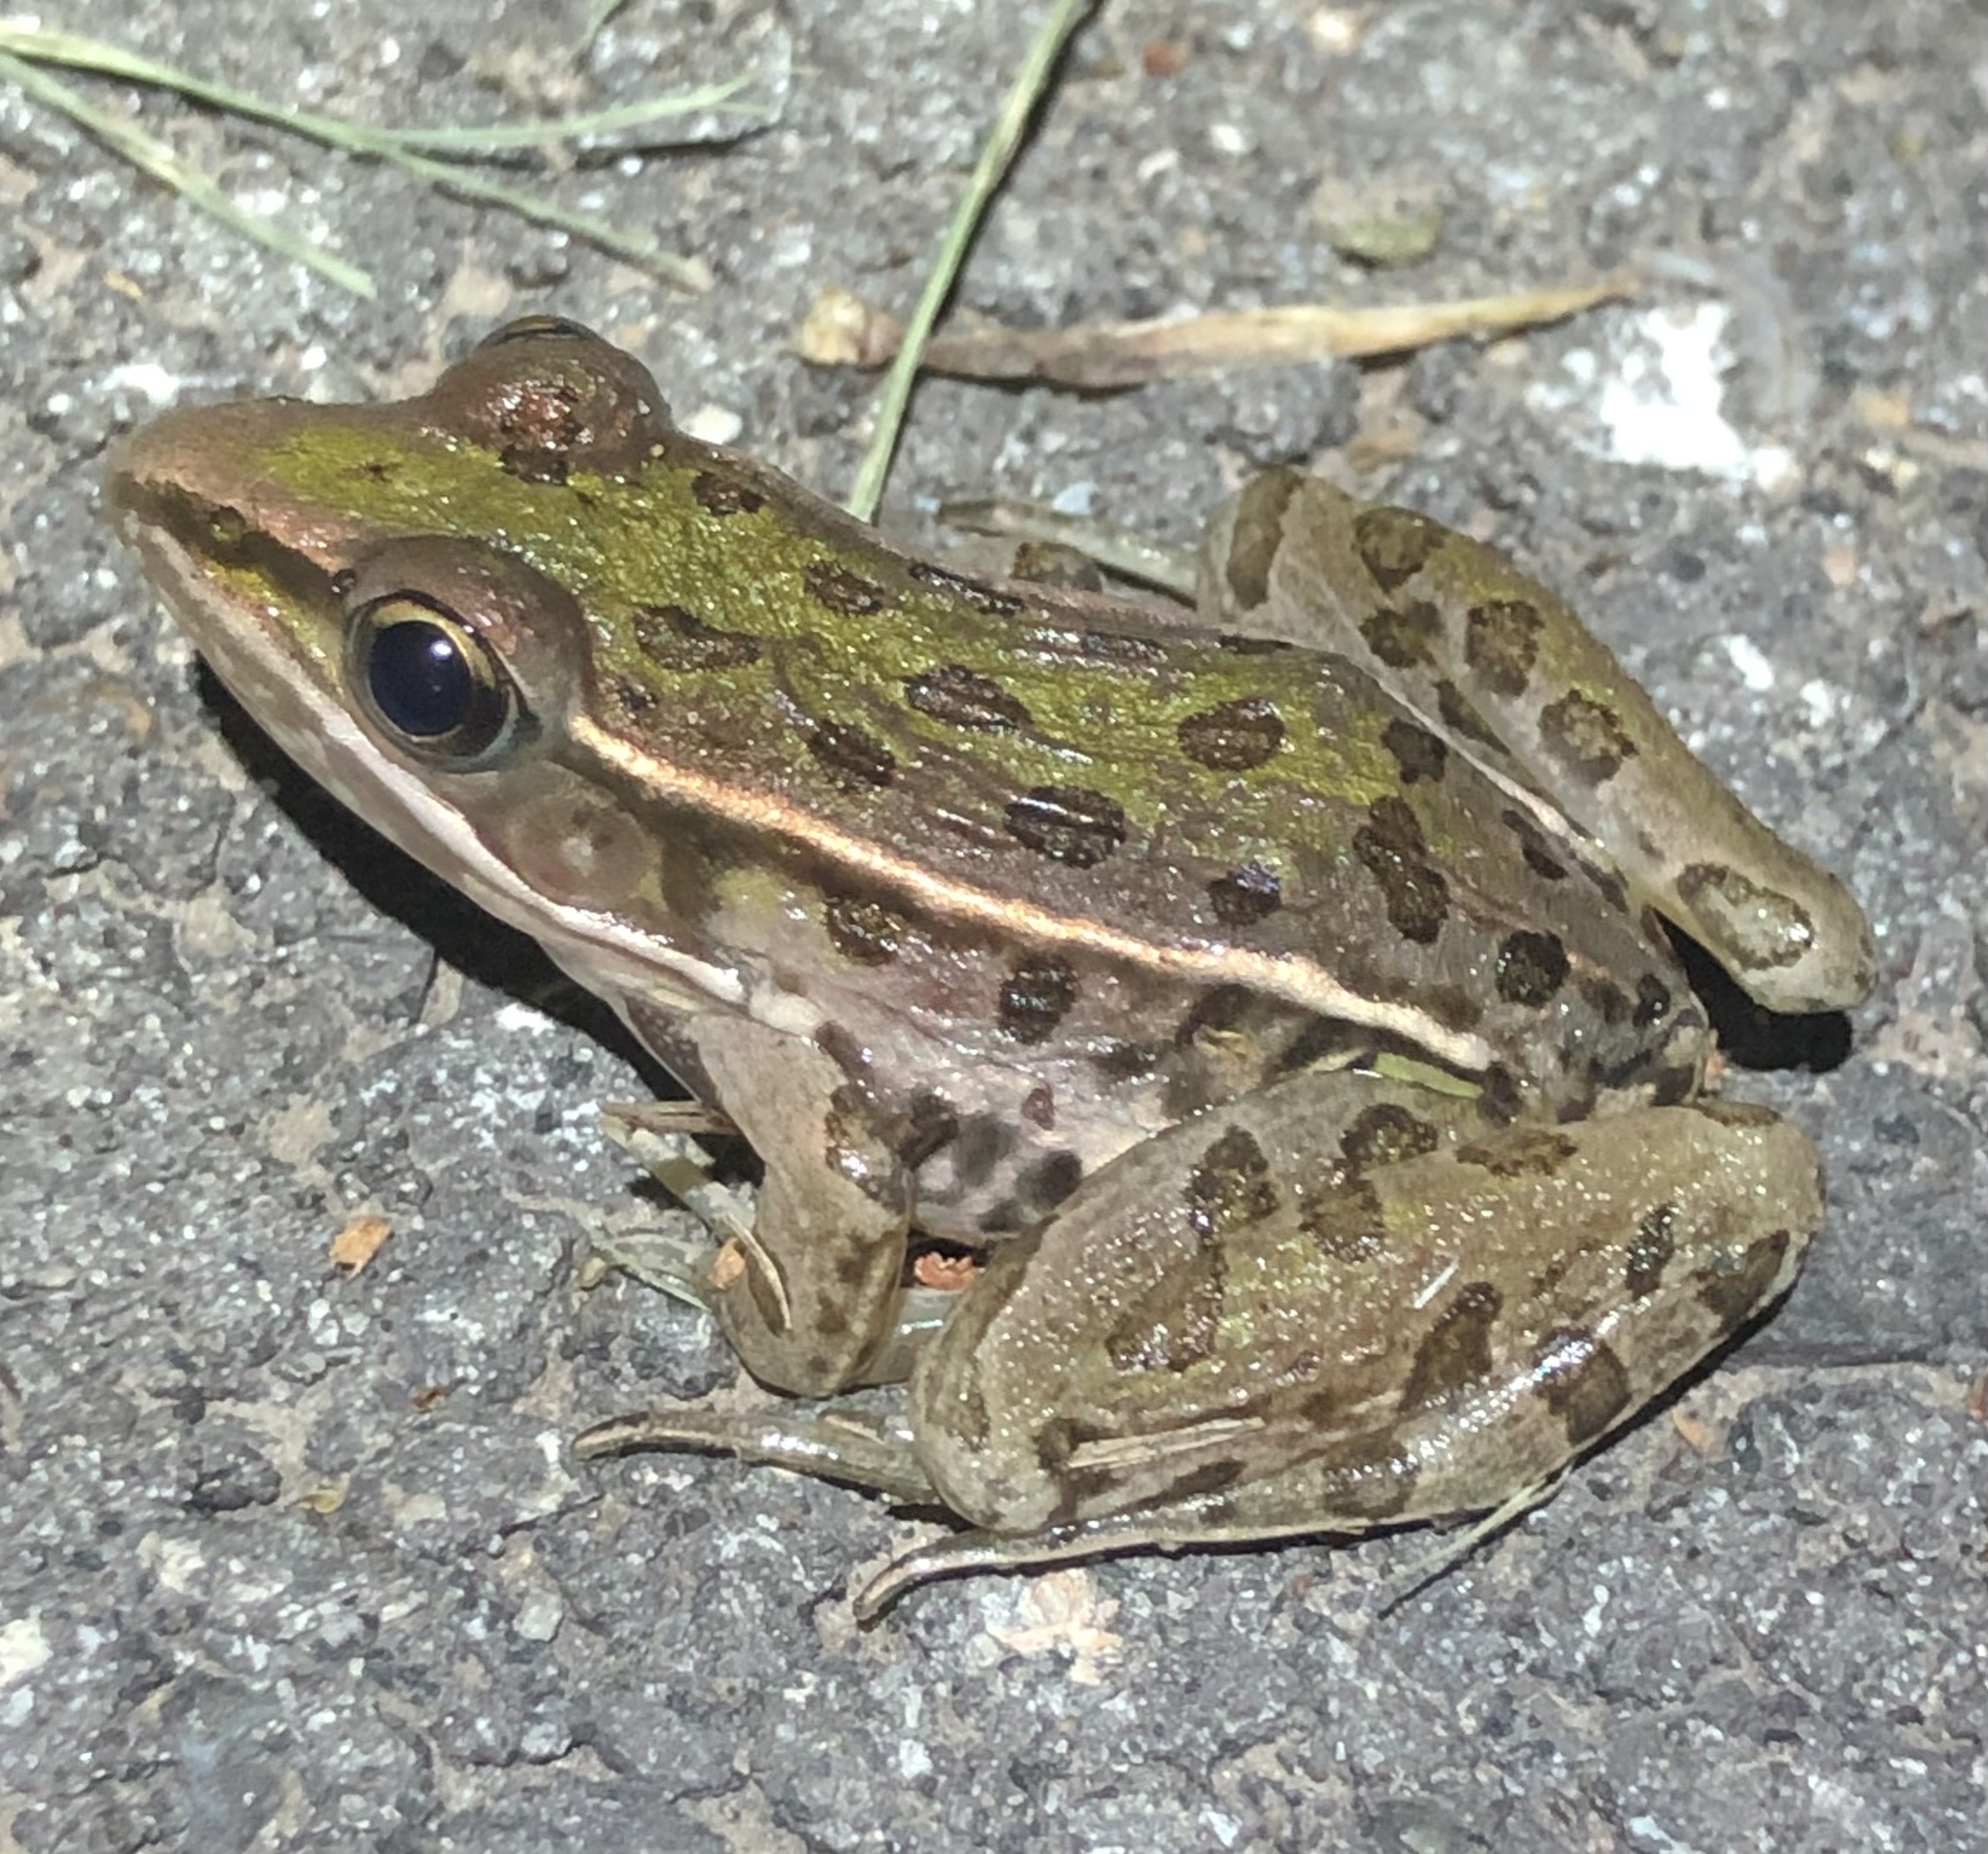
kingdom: Animalia
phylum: Chordata
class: Amphibia
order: Anura
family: Ranidae
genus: Lithobates
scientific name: Lithobates sphenocephalus
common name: Southern leopard frog
